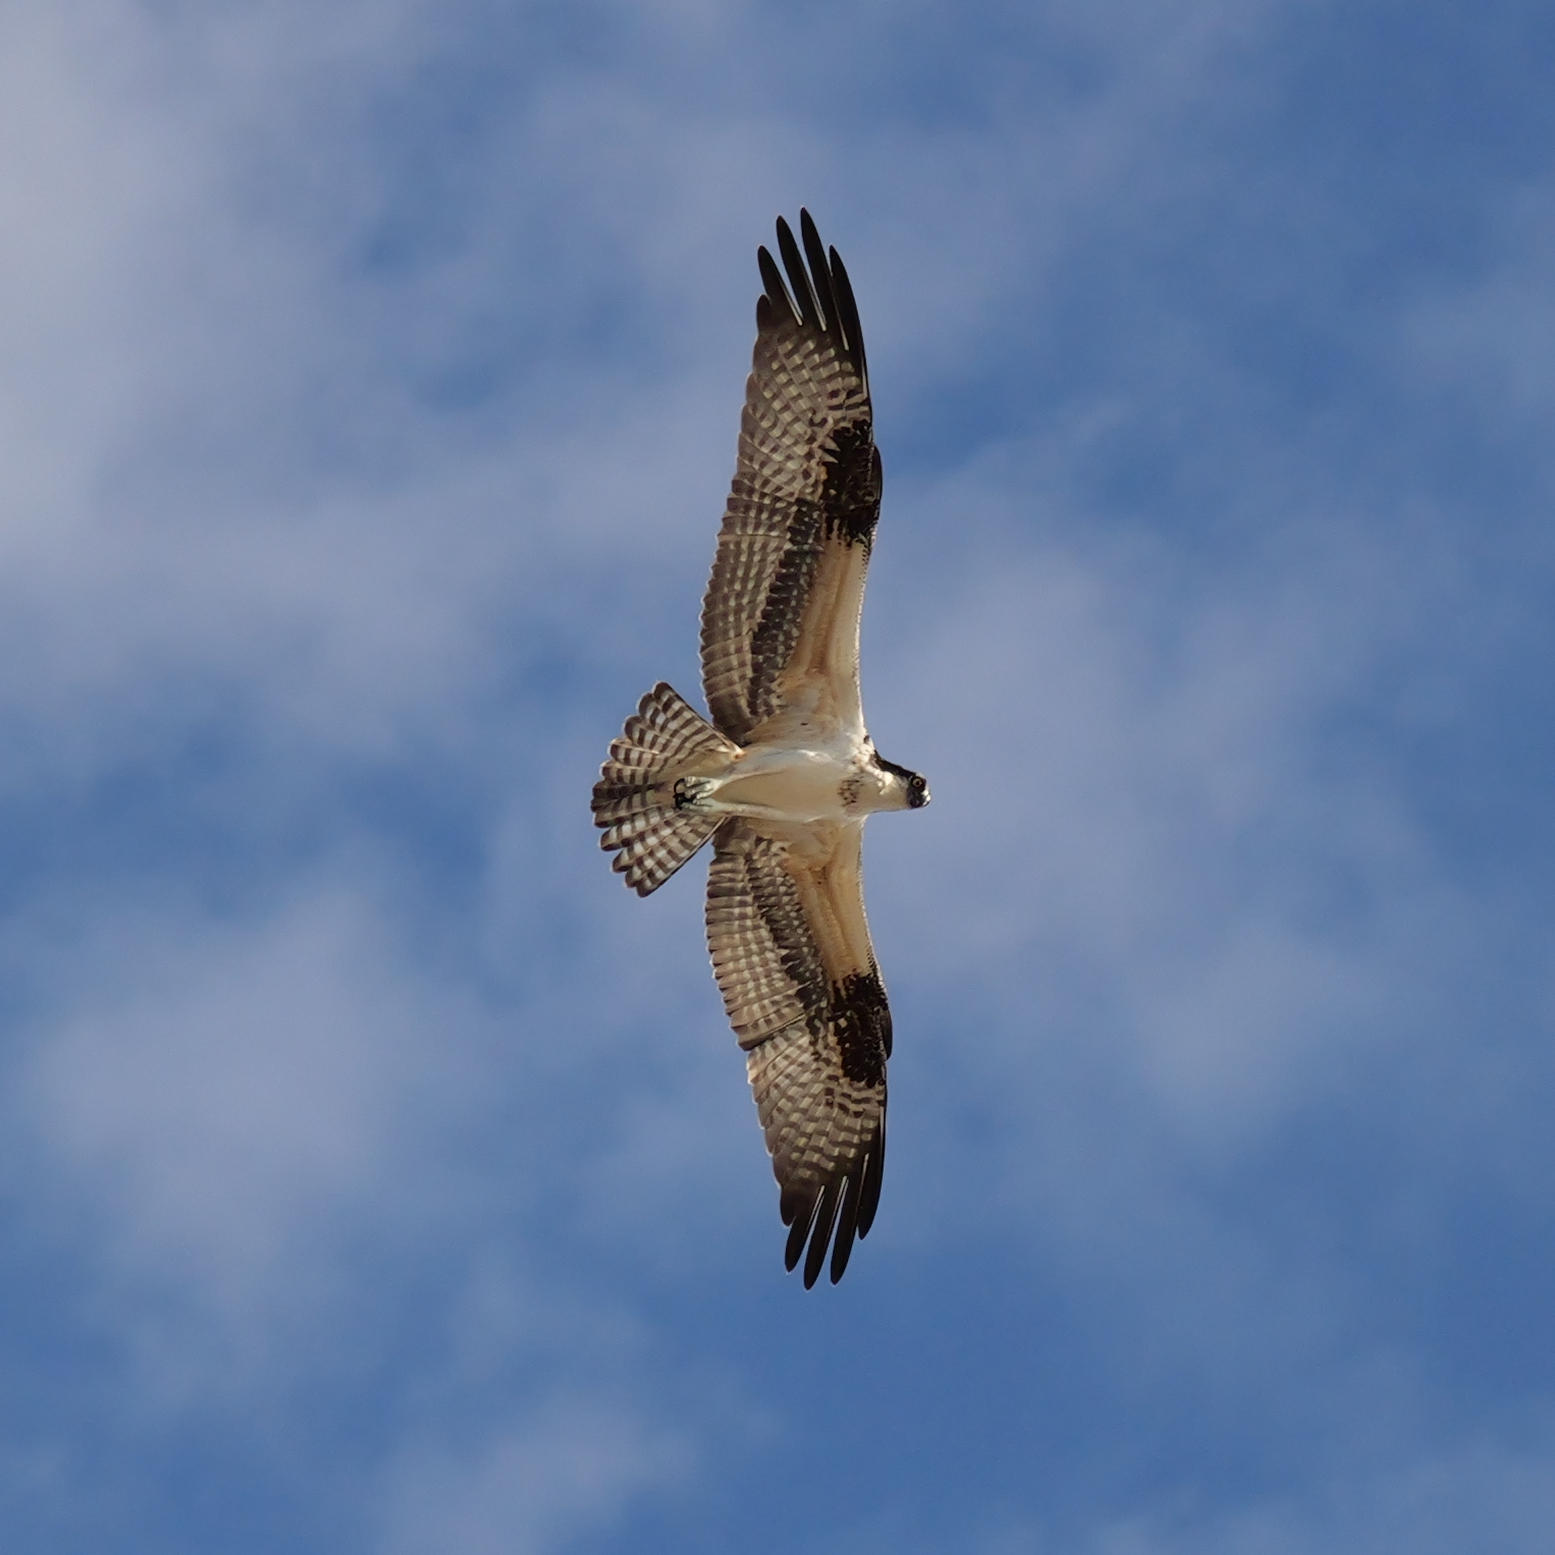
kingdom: Animalia
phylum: Chordata
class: Aves
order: Accipitriformes
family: Pandionidae
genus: Pandion
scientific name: Pandion haliaetus
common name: Osprey
